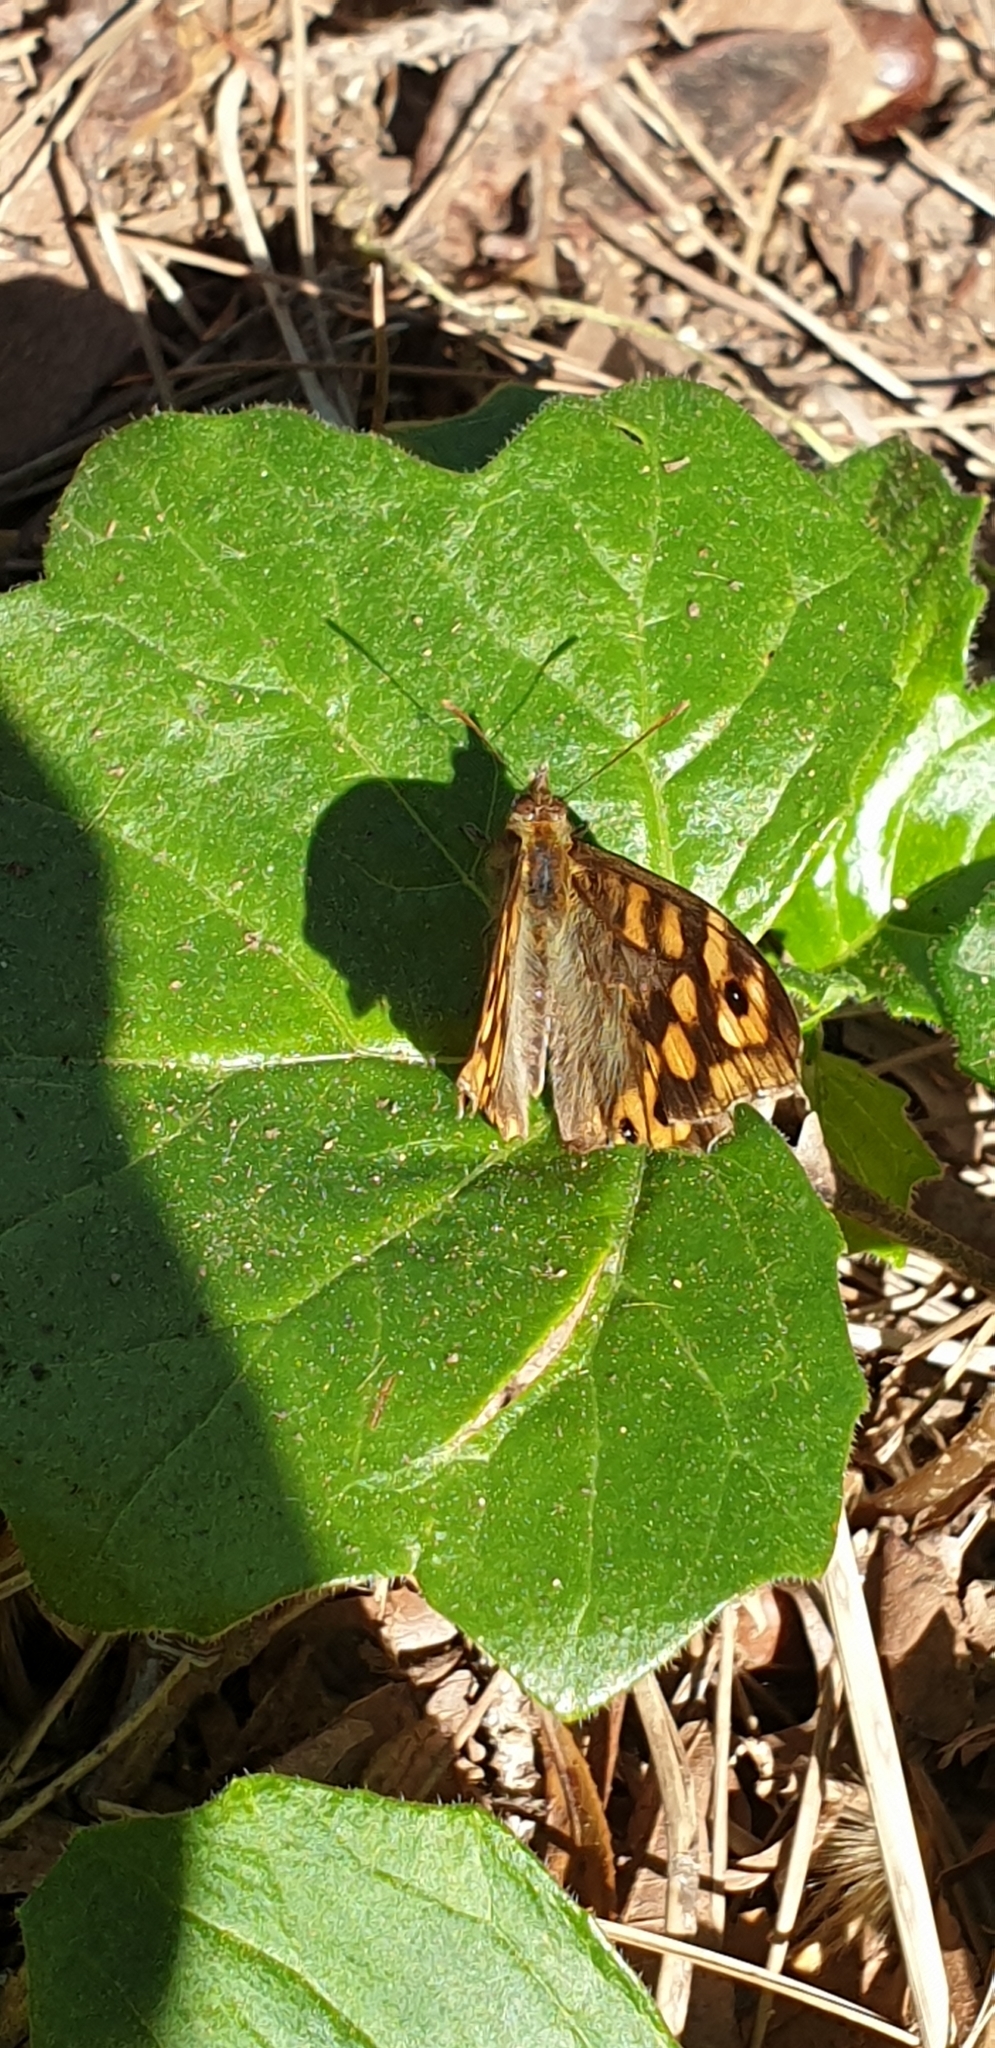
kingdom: Animalia
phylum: Arthropoda
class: Insecta
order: Lepidoptera
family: Nymphalidae
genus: Pararge
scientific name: Pararge aegeria
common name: Speckled wood
